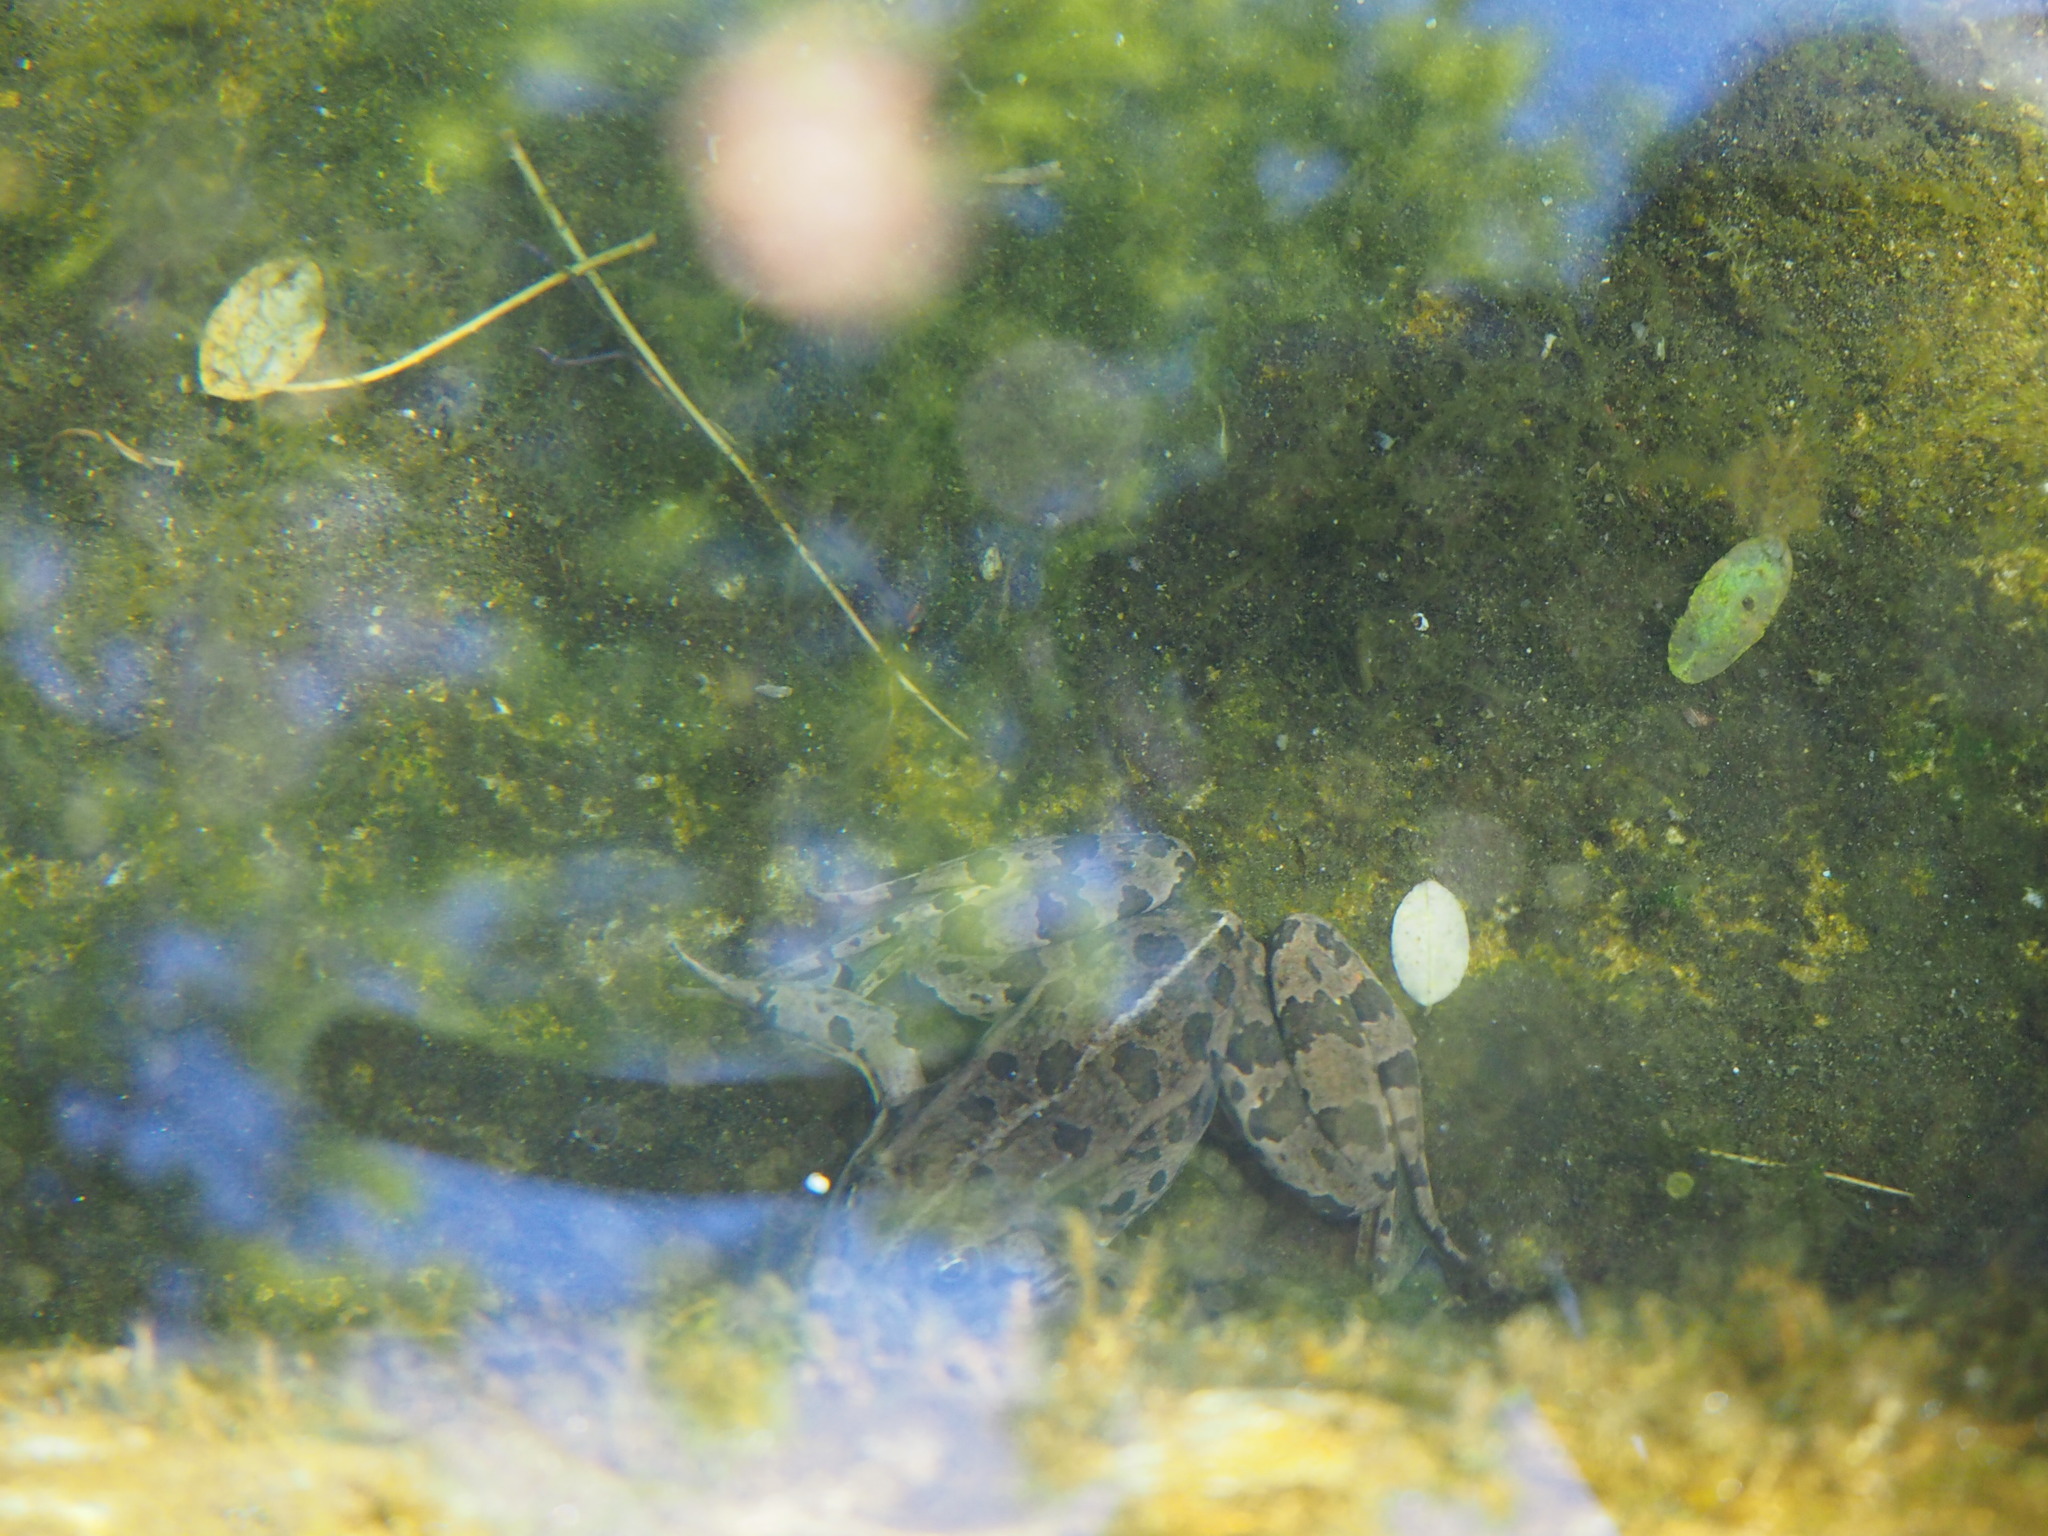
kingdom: Animalia
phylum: Chordata
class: Amphibia
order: Anura
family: Ranidae
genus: Pelophylax
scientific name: Pelophylax
